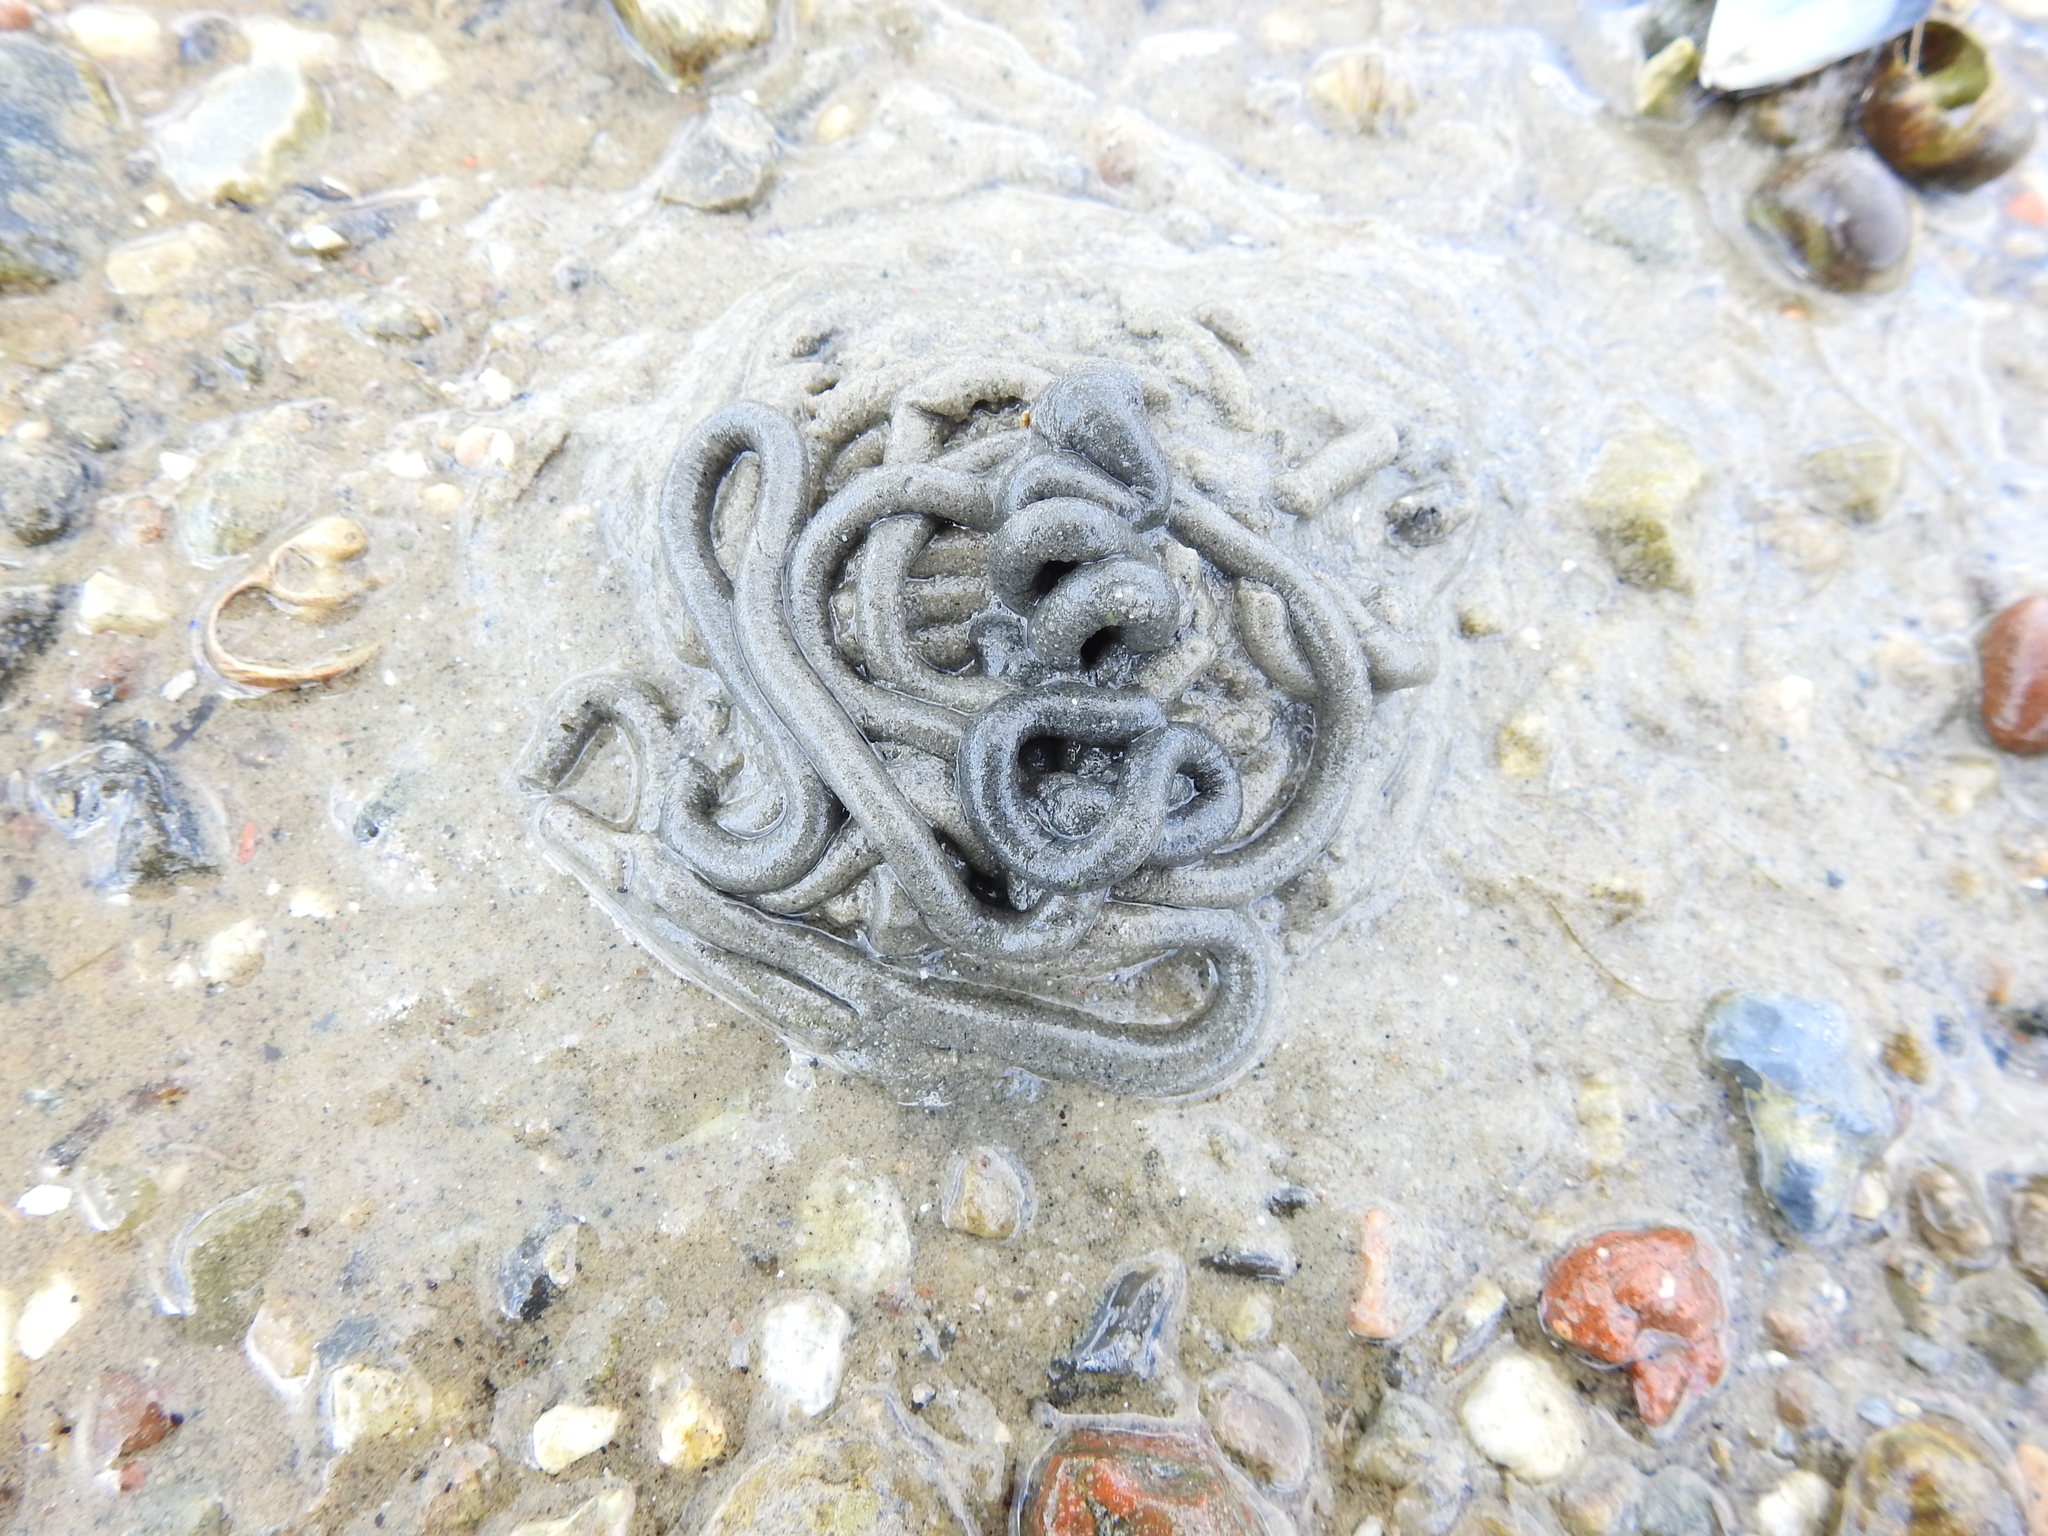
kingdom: Animalia
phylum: Annelida
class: Polychaeta
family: Arenicolidae
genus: Arenicola
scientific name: Arenicola marina
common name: Blow lugworm
